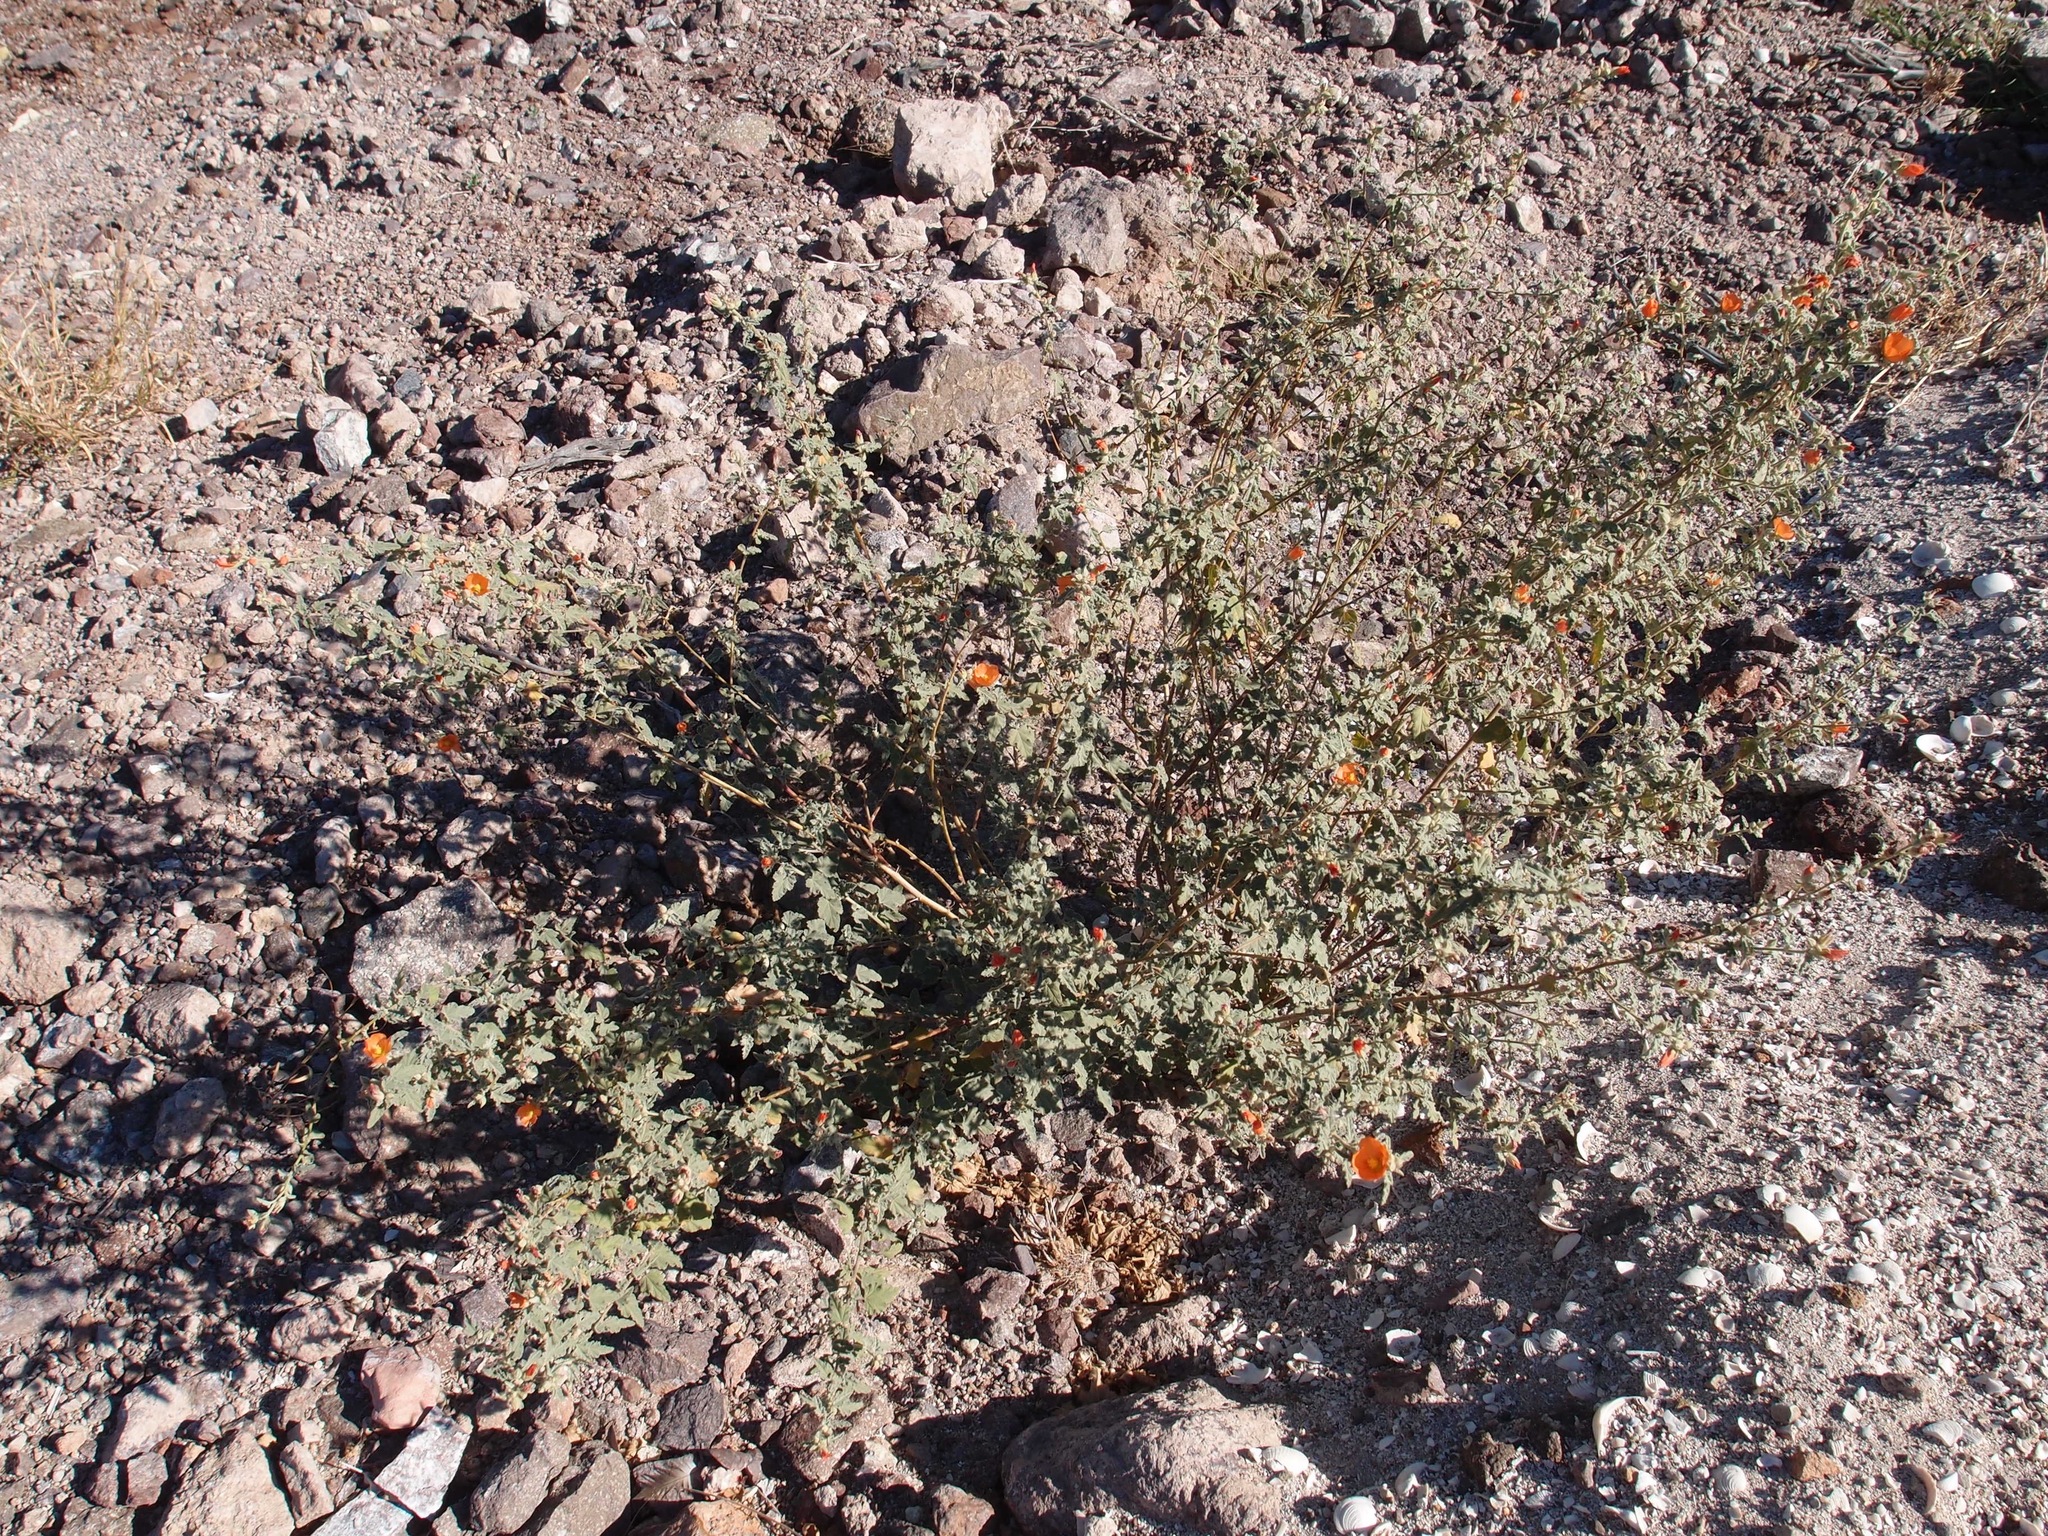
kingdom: Plantae
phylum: Tracheophyta
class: Magnoliopsida
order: Malvales
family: Malvaceae
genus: Sphaeralcea
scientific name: Sphaeralcea emoryi
